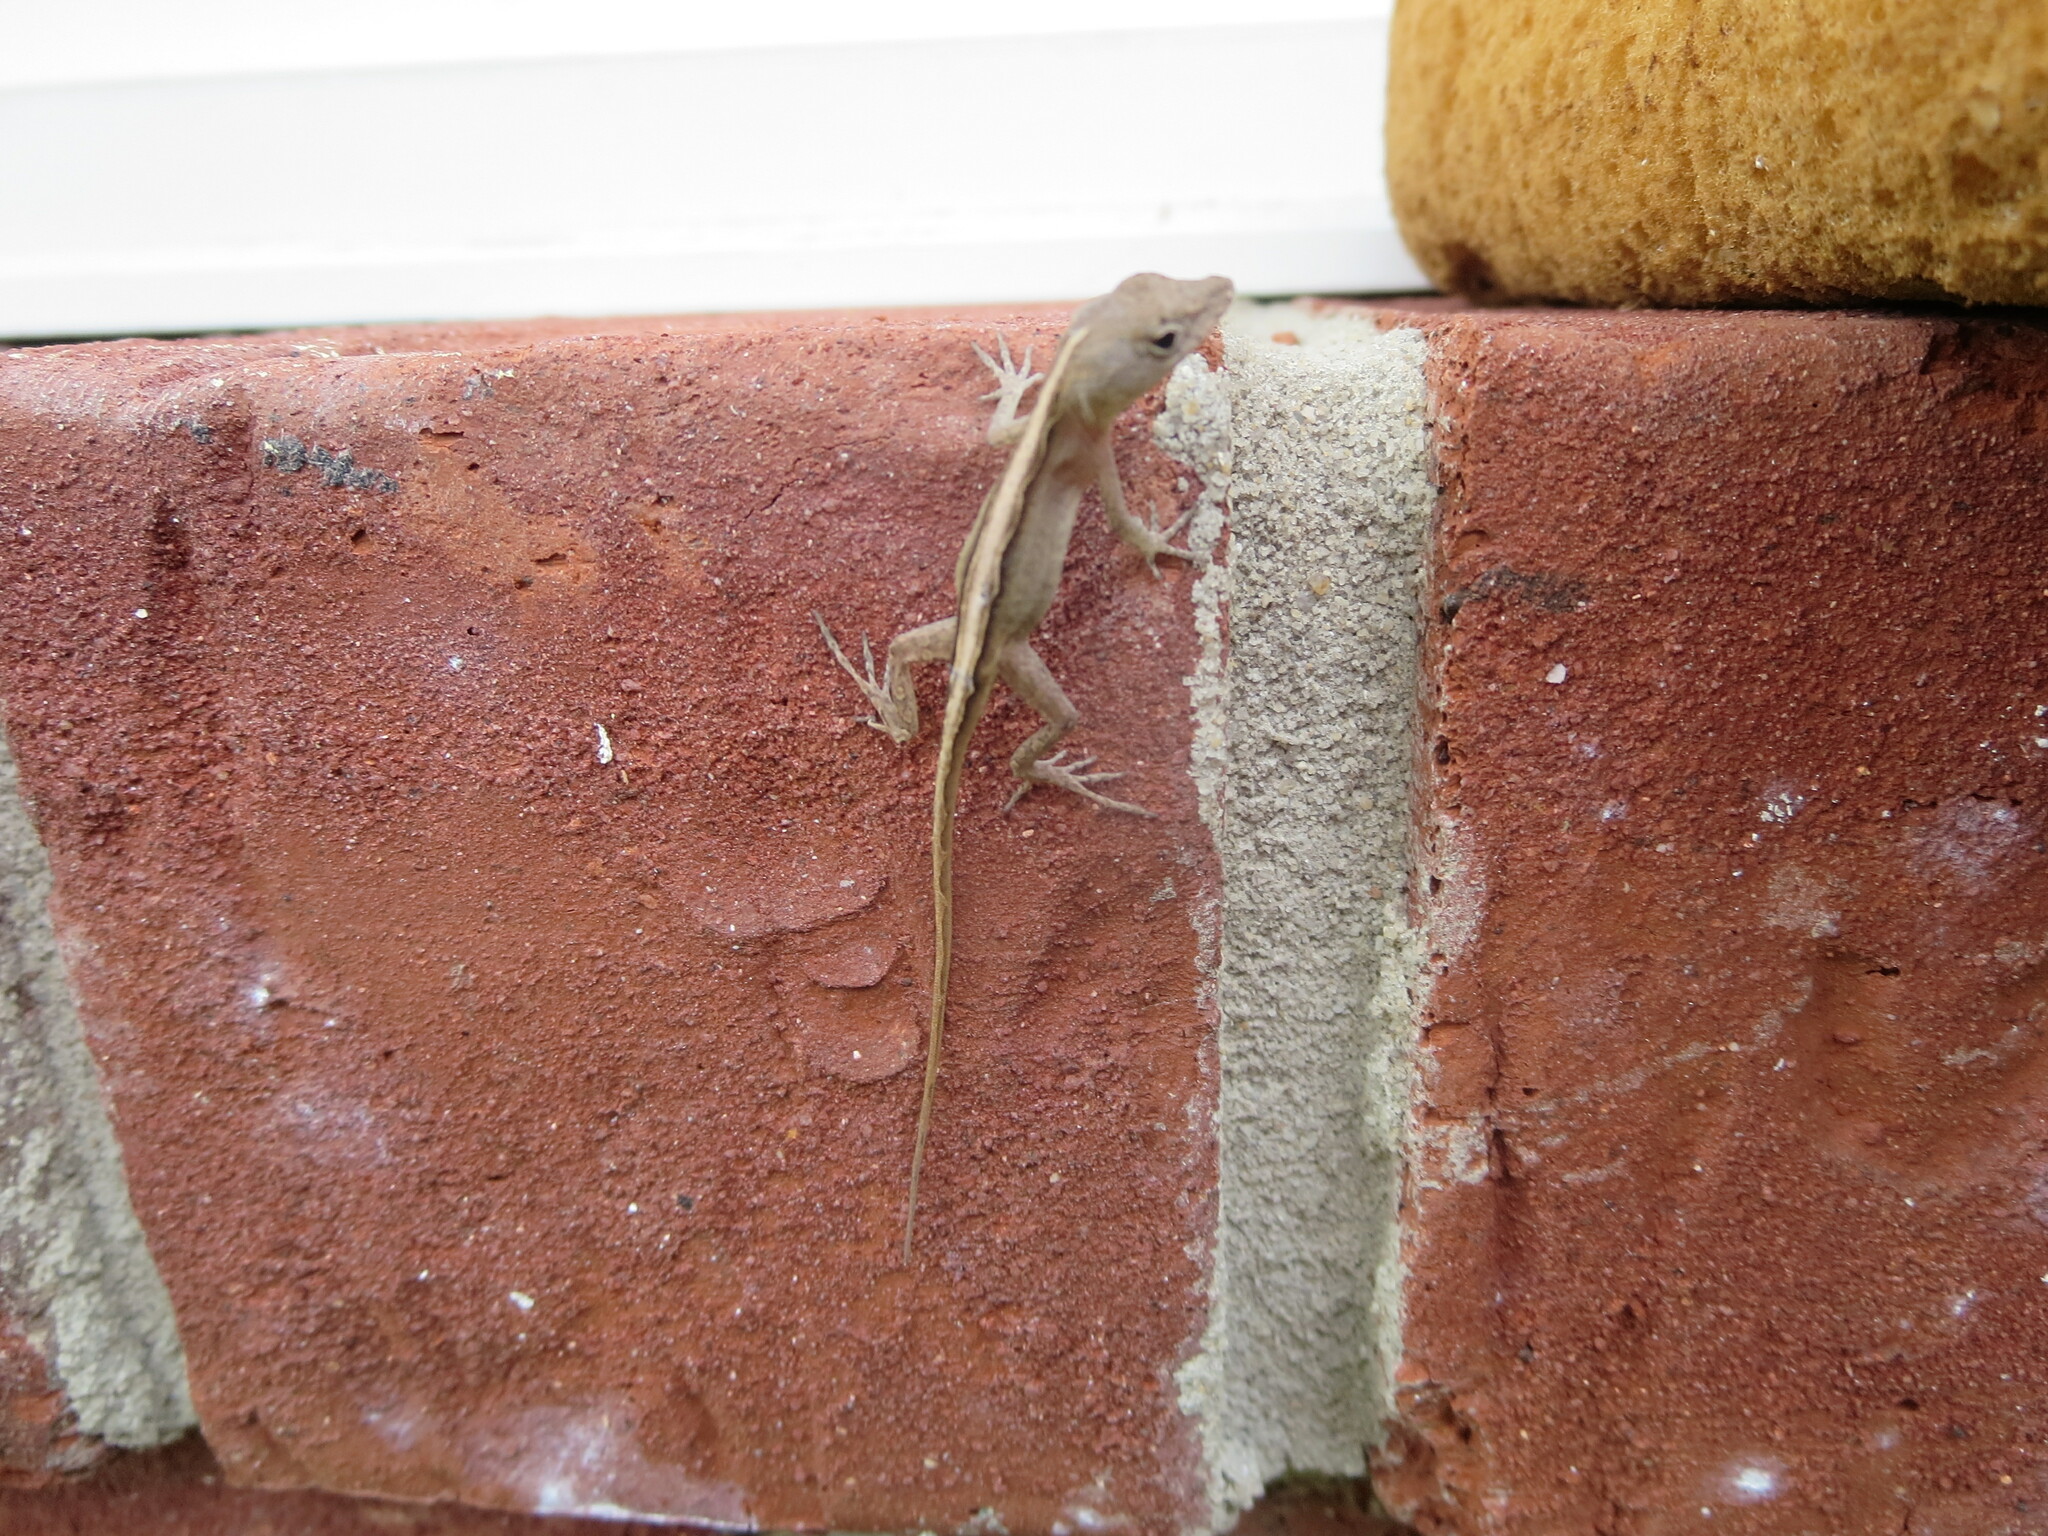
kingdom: Animalia
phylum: Chordata
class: Squamata
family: Dactyloidae
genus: Anolis
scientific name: Anolis sagrei
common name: Brown anole
